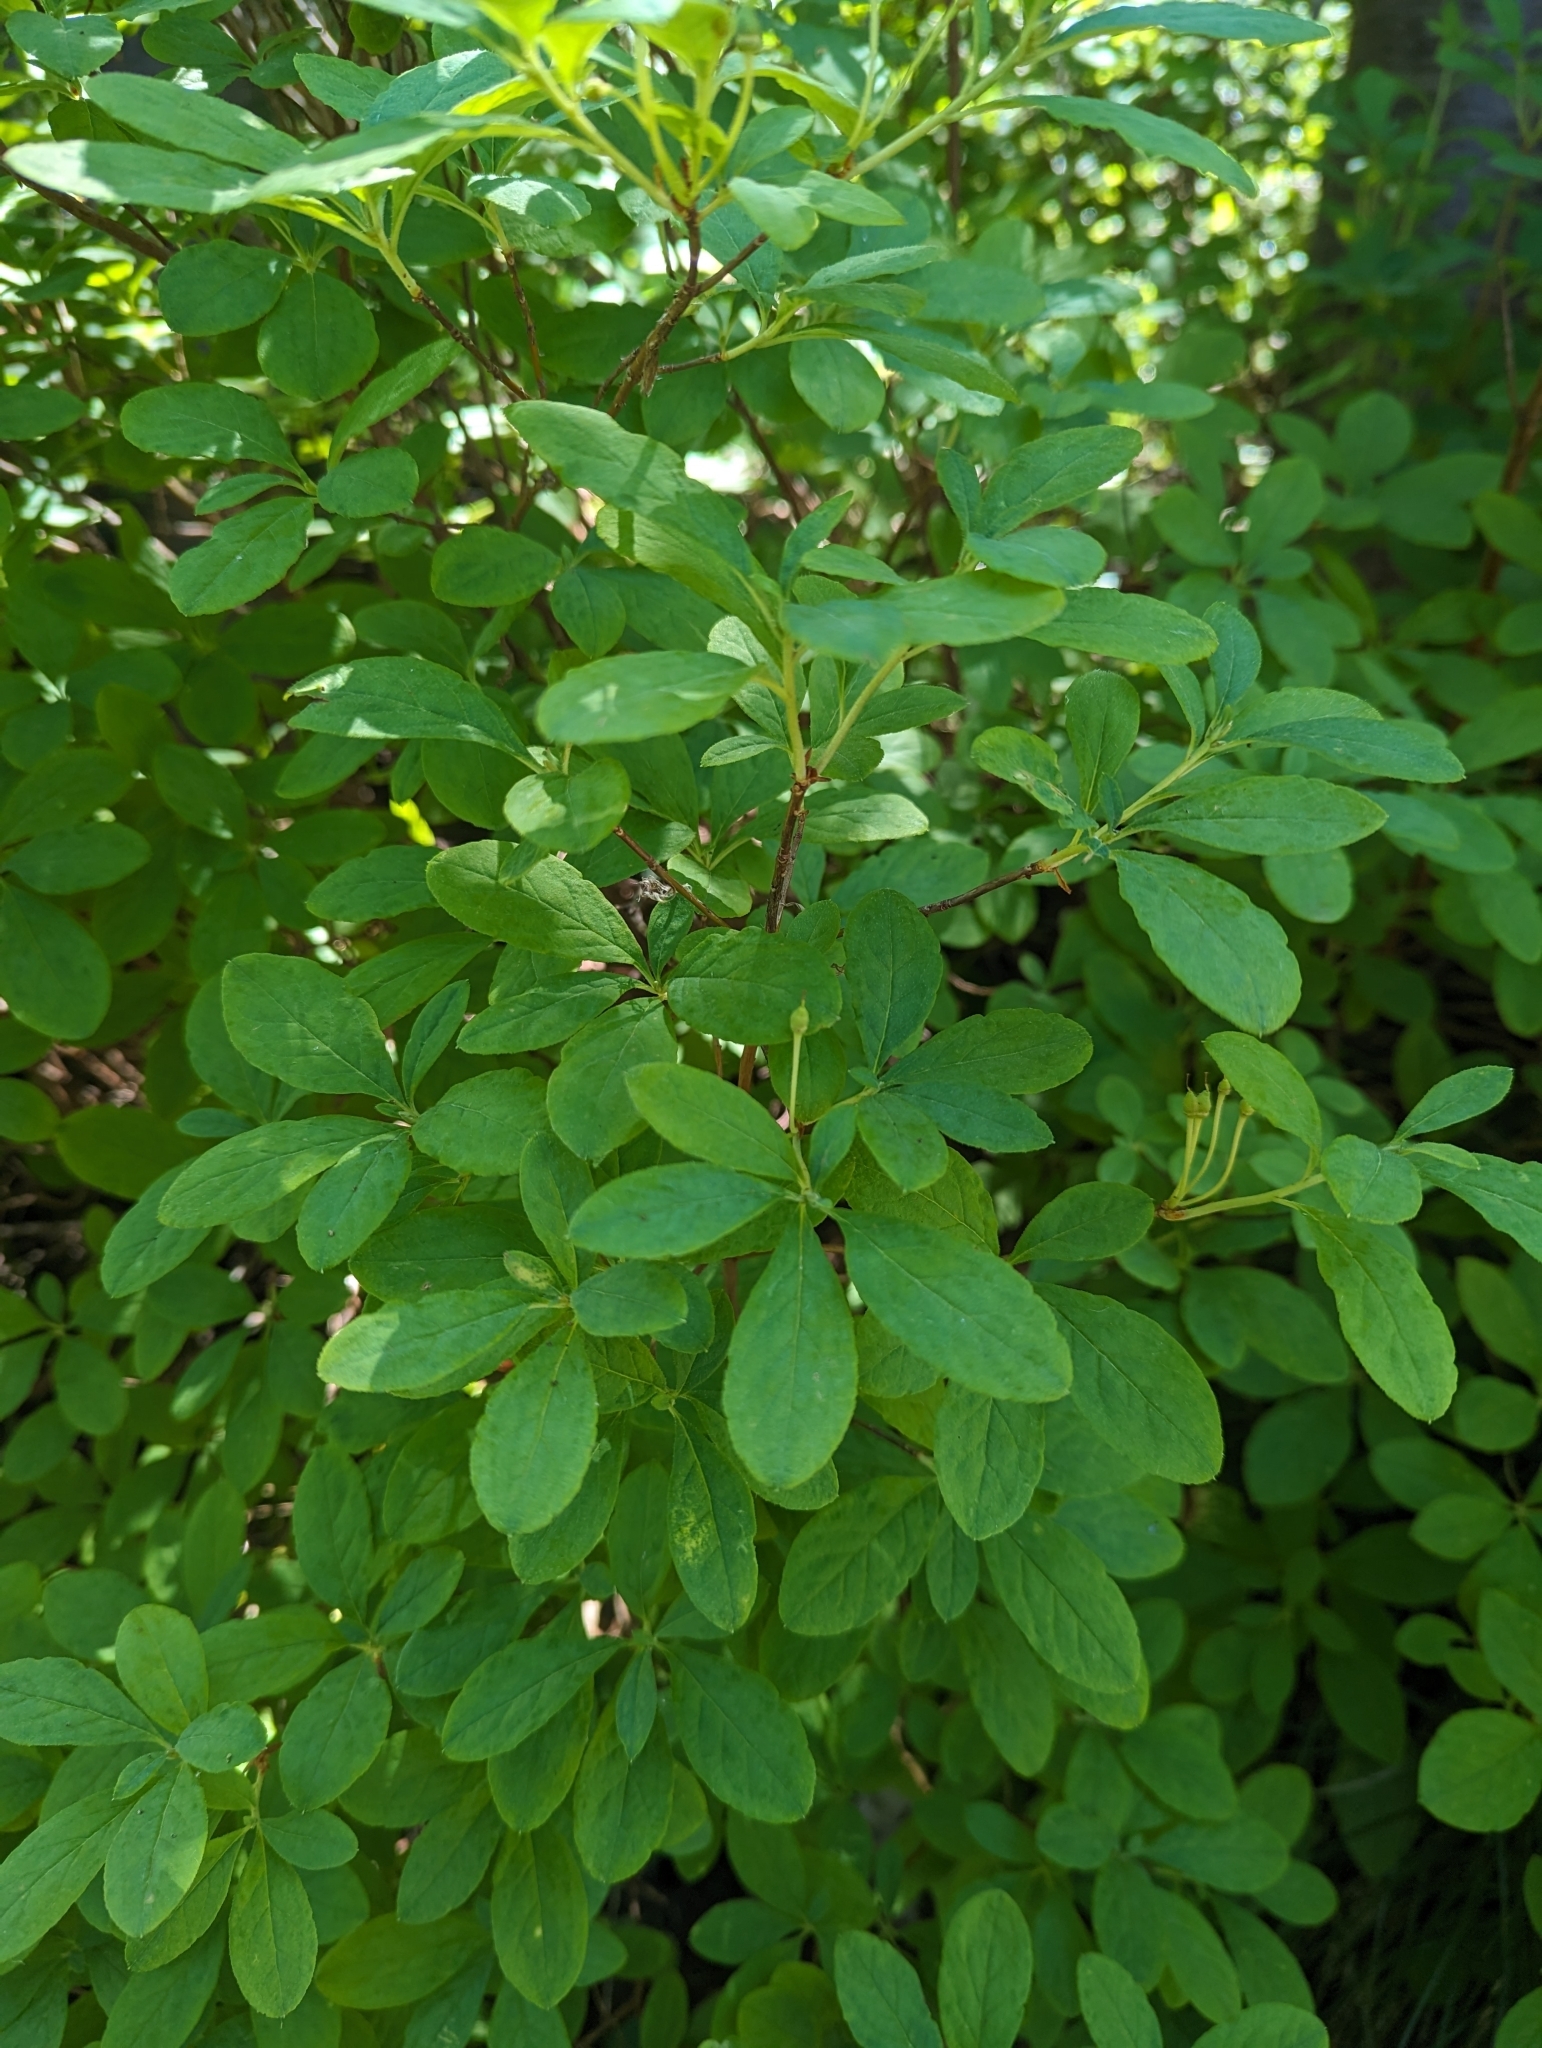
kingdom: Plantae
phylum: Tracheophyta
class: Magnoliopsida
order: Ericales
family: Ericaceae
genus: Rhododendron
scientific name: Rhododendron menziesii
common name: Pacific menziesia
